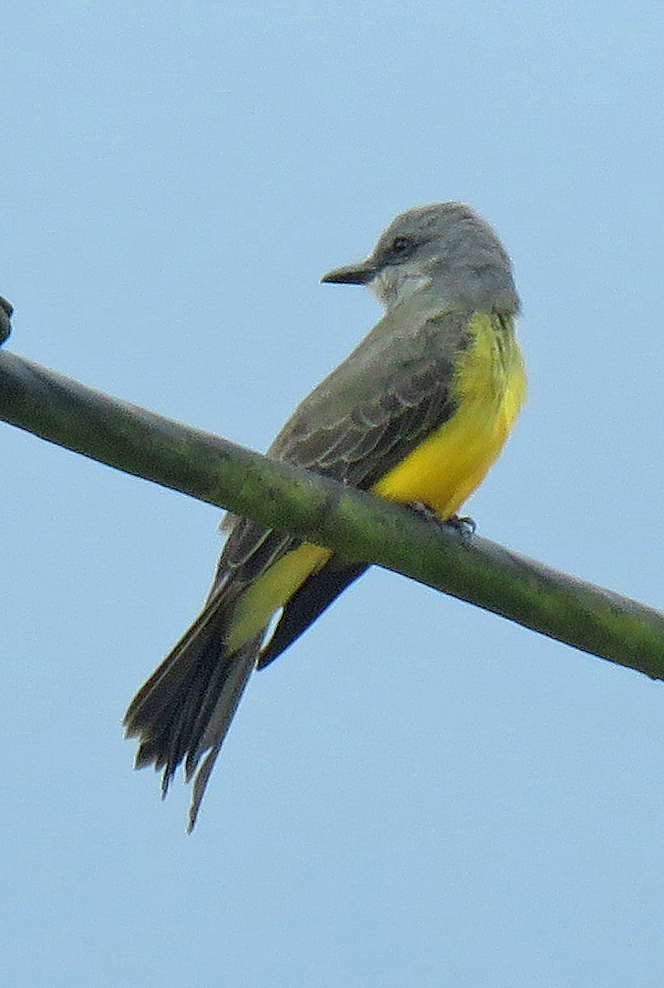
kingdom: Animalia
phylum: Chordata
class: Aves
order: Passeriformes
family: Tyrannidae
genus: Tyrannus
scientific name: Tyrannus melancholicus
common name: Tropical kingbird
